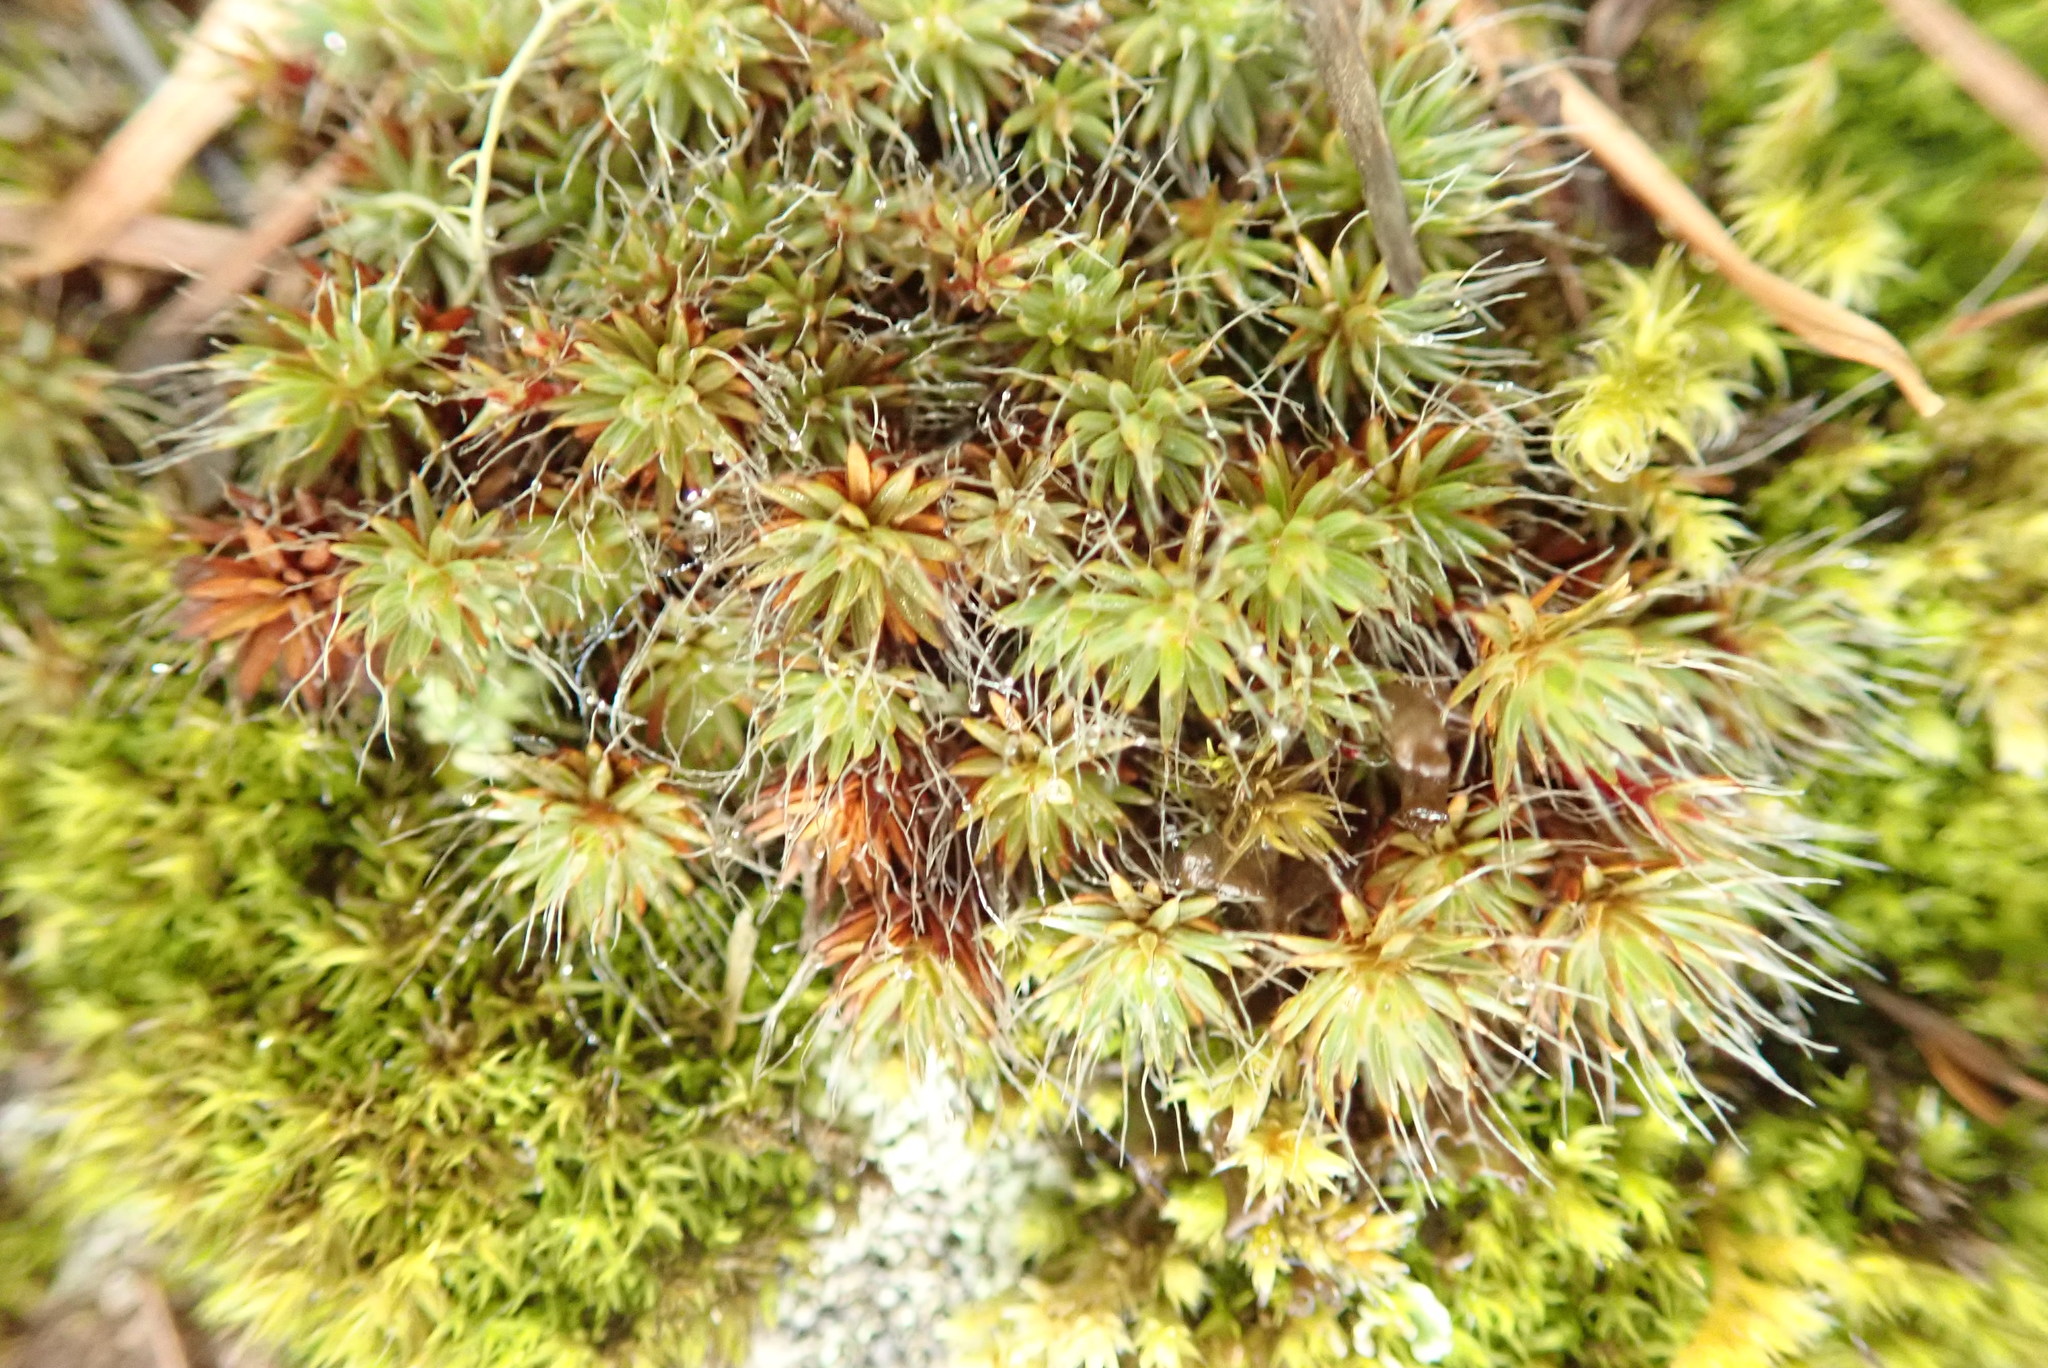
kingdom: Plantae
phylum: Bryophyta
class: Polytrichopsida
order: Polytrichales
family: Polytrichaceae
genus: Polytrichum
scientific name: Polytrichum piliferum
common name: Bristly haircap
